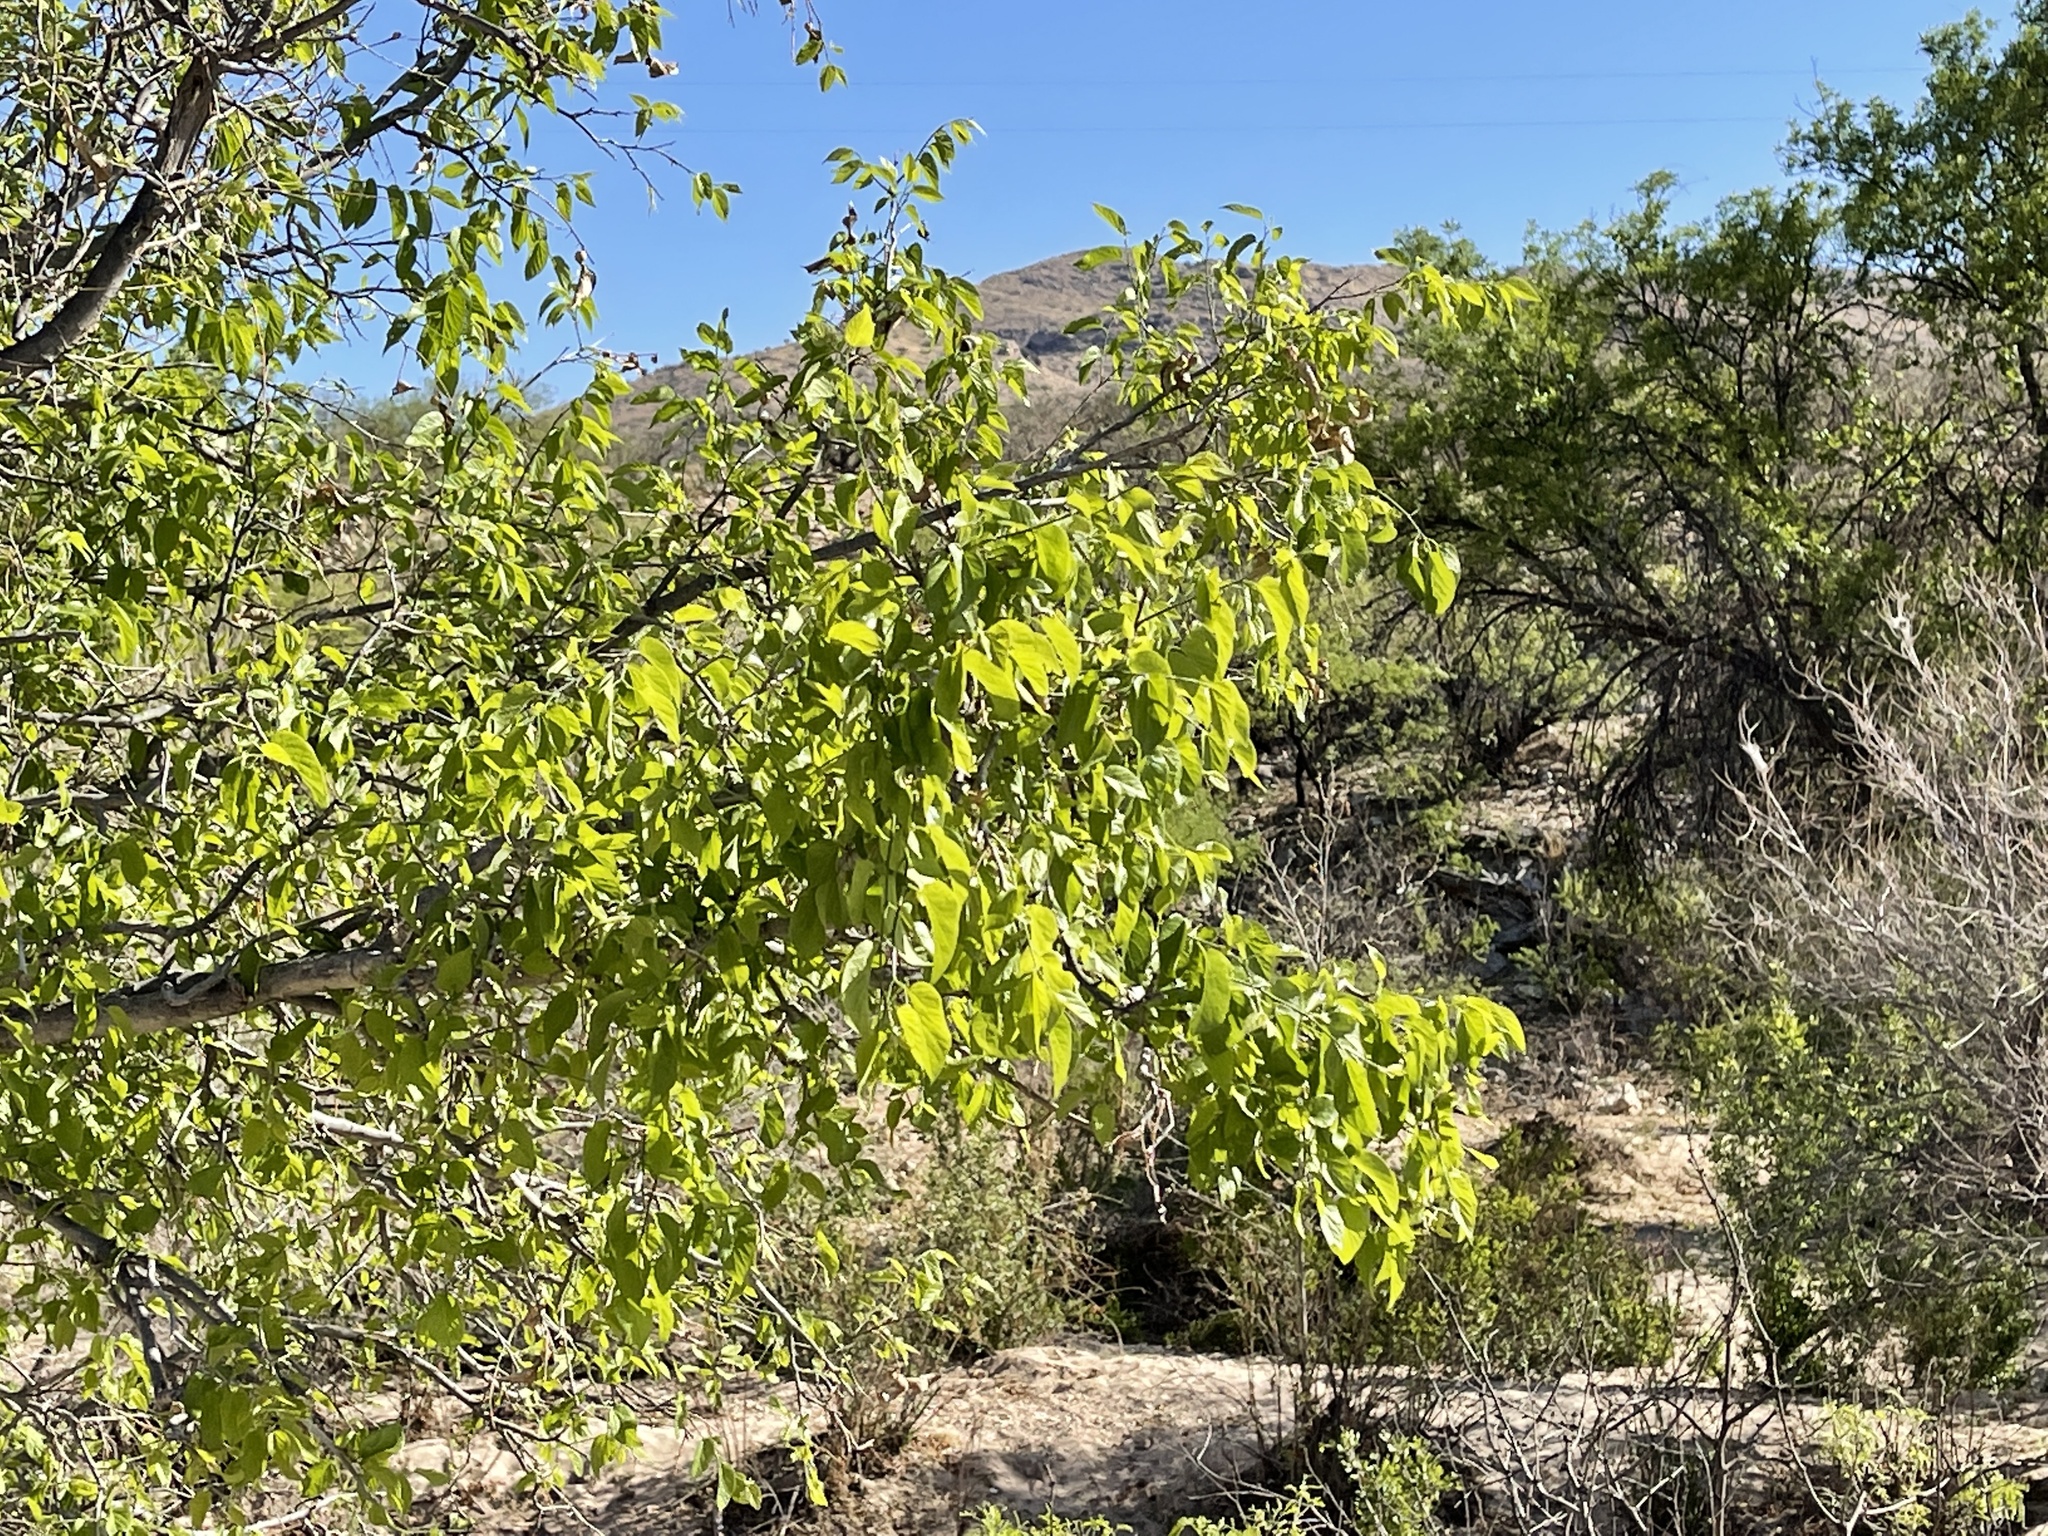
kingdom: Plantae
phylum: Tracheophyta
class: Magnoliopsida
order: Rosales
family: Cannabaceae
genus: Celtis
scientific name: Celtis reticulata
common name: Netleaf hackberry
